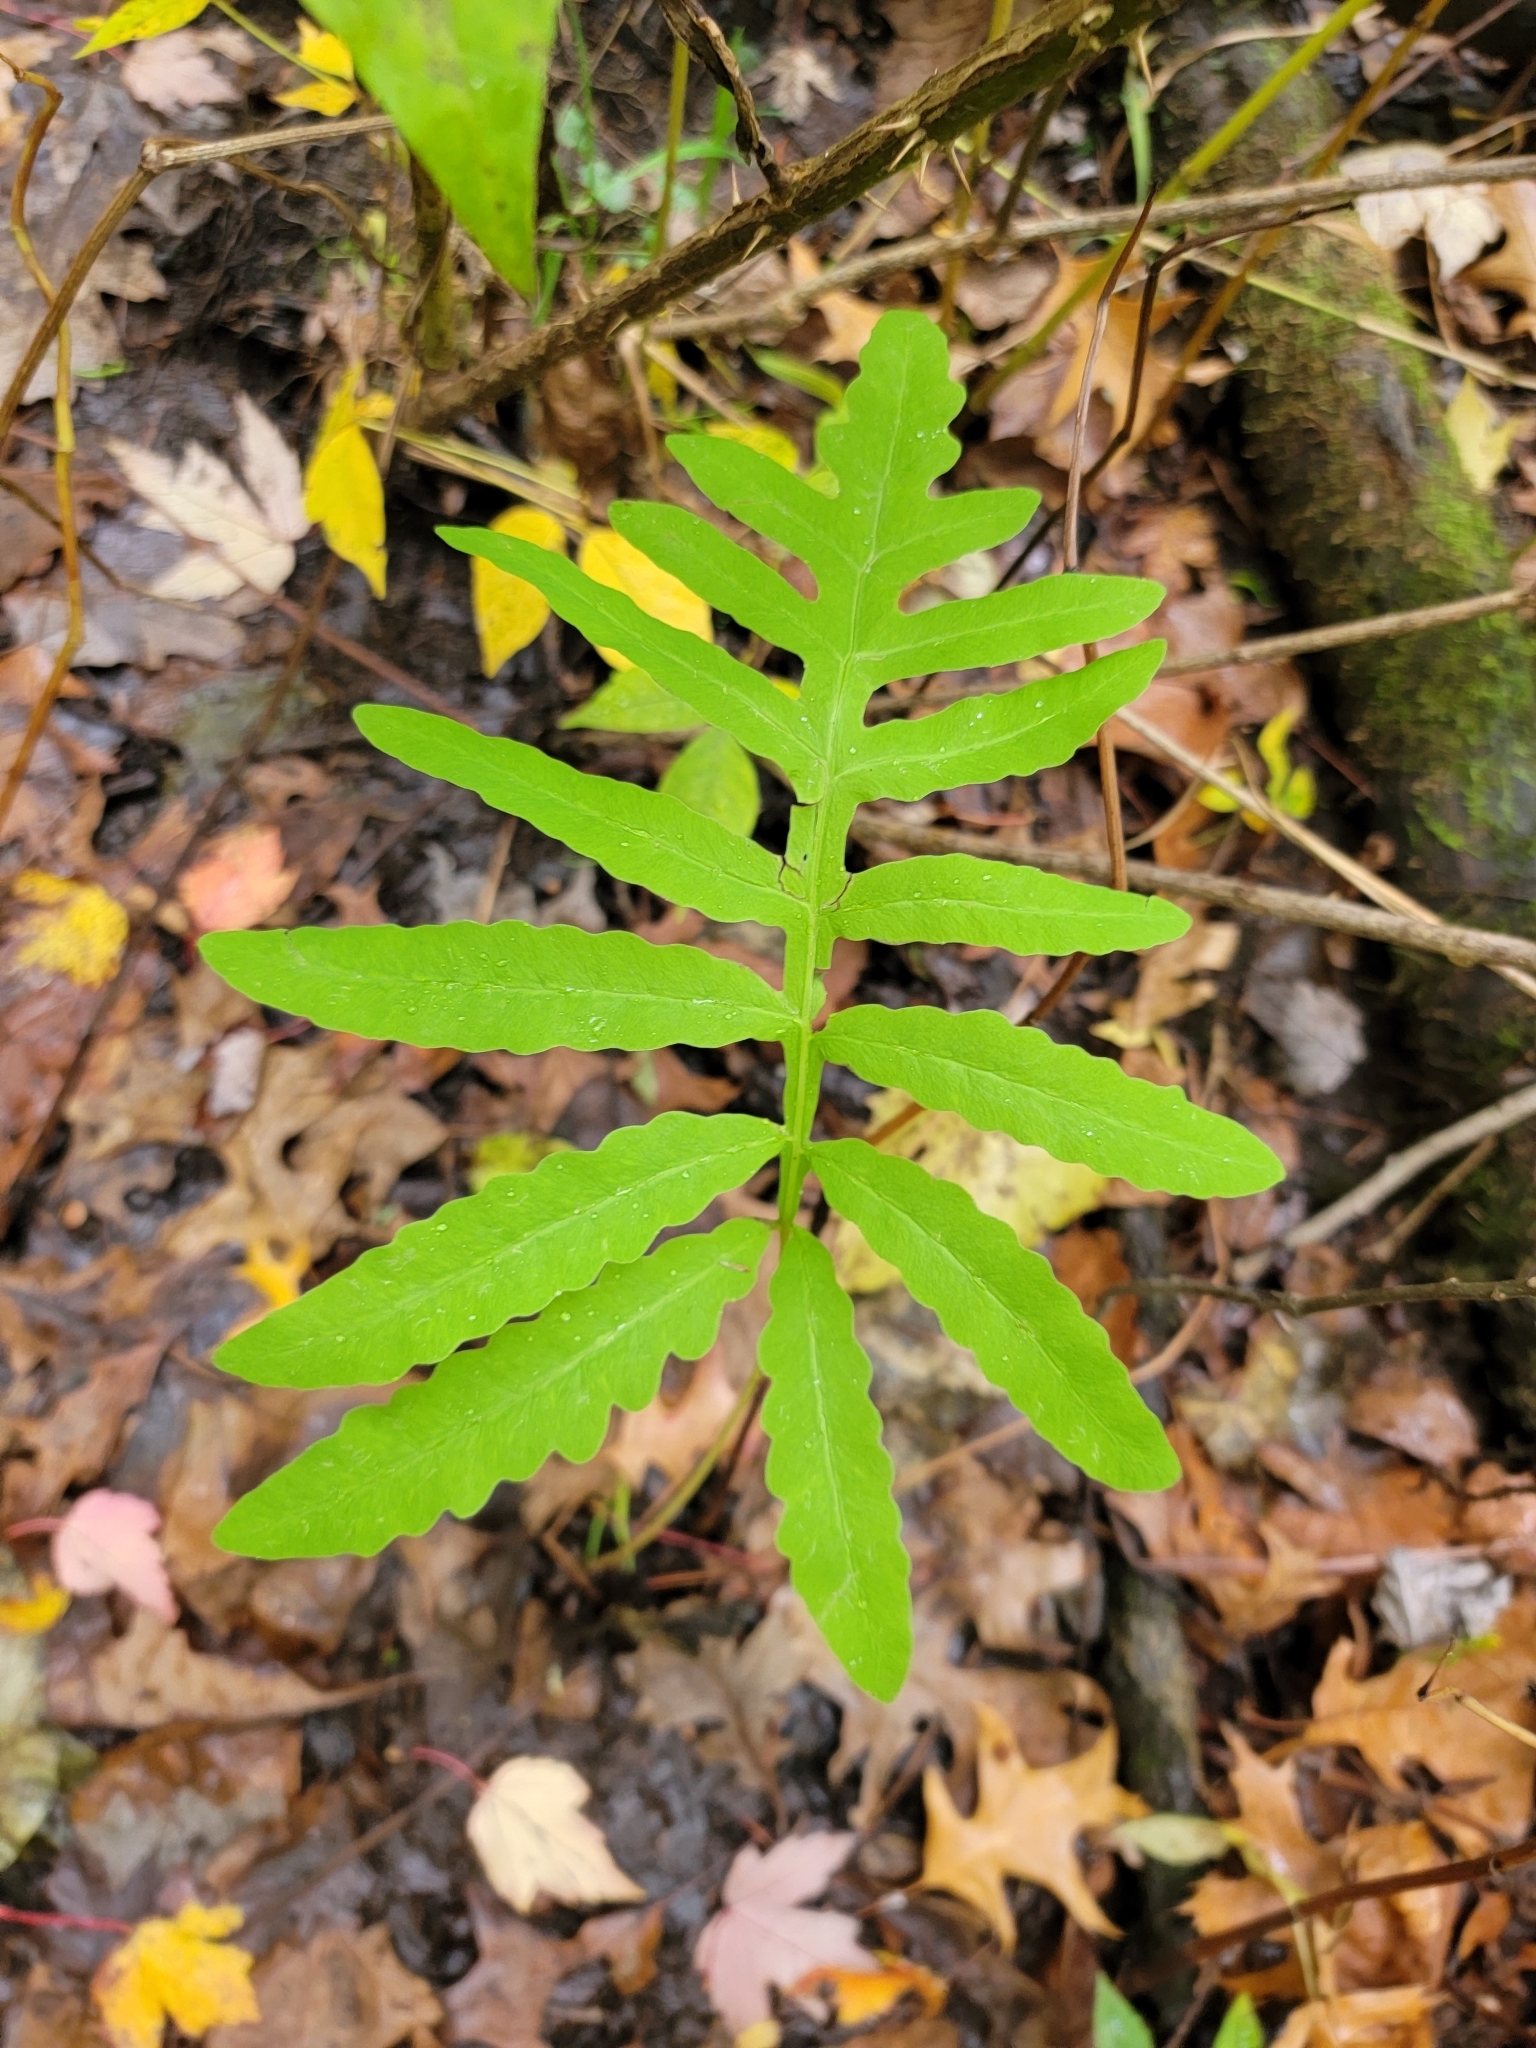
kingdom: Plantae
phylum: Tracheophyta
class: Polypodiopsida
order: Polypodiales
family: Onocleaceae
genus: Onoclea
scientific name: Onoclea sensibilis
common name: Sensitive fern
